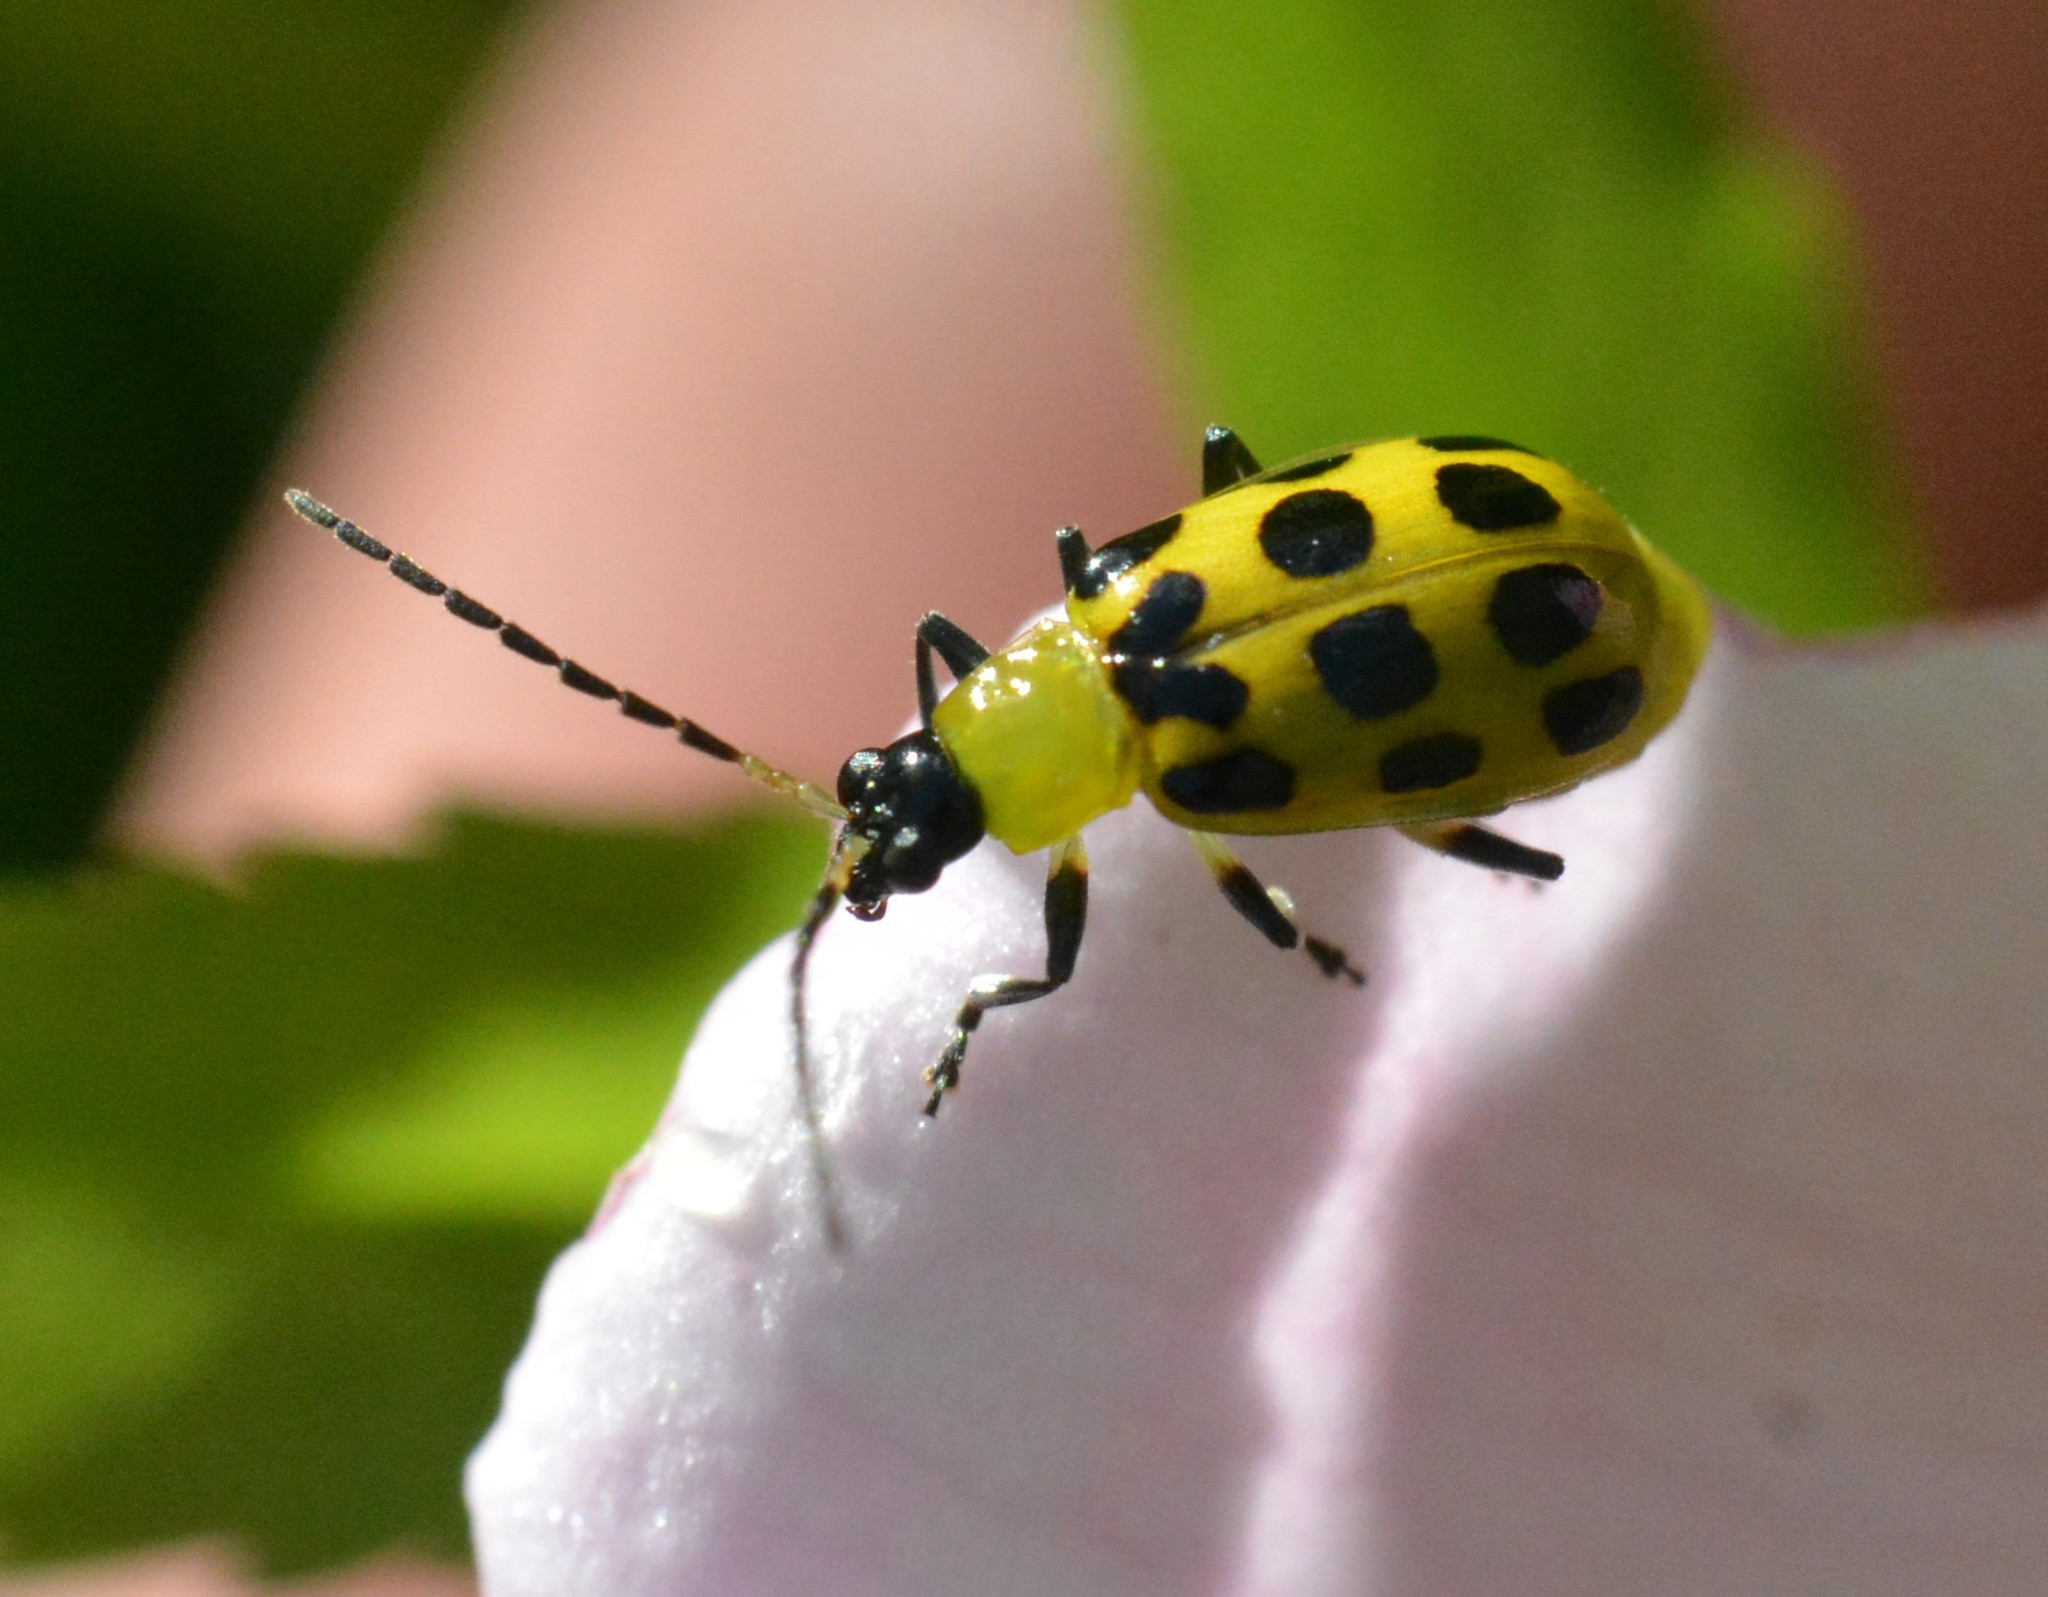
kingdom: Animalia
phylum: Arthropoda
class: Insecta
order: Coleoptera
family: Chrysomelidae
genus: Diabrotica
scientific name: Diabrotica undecimpunctata
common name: Spotted cucumber beetle
